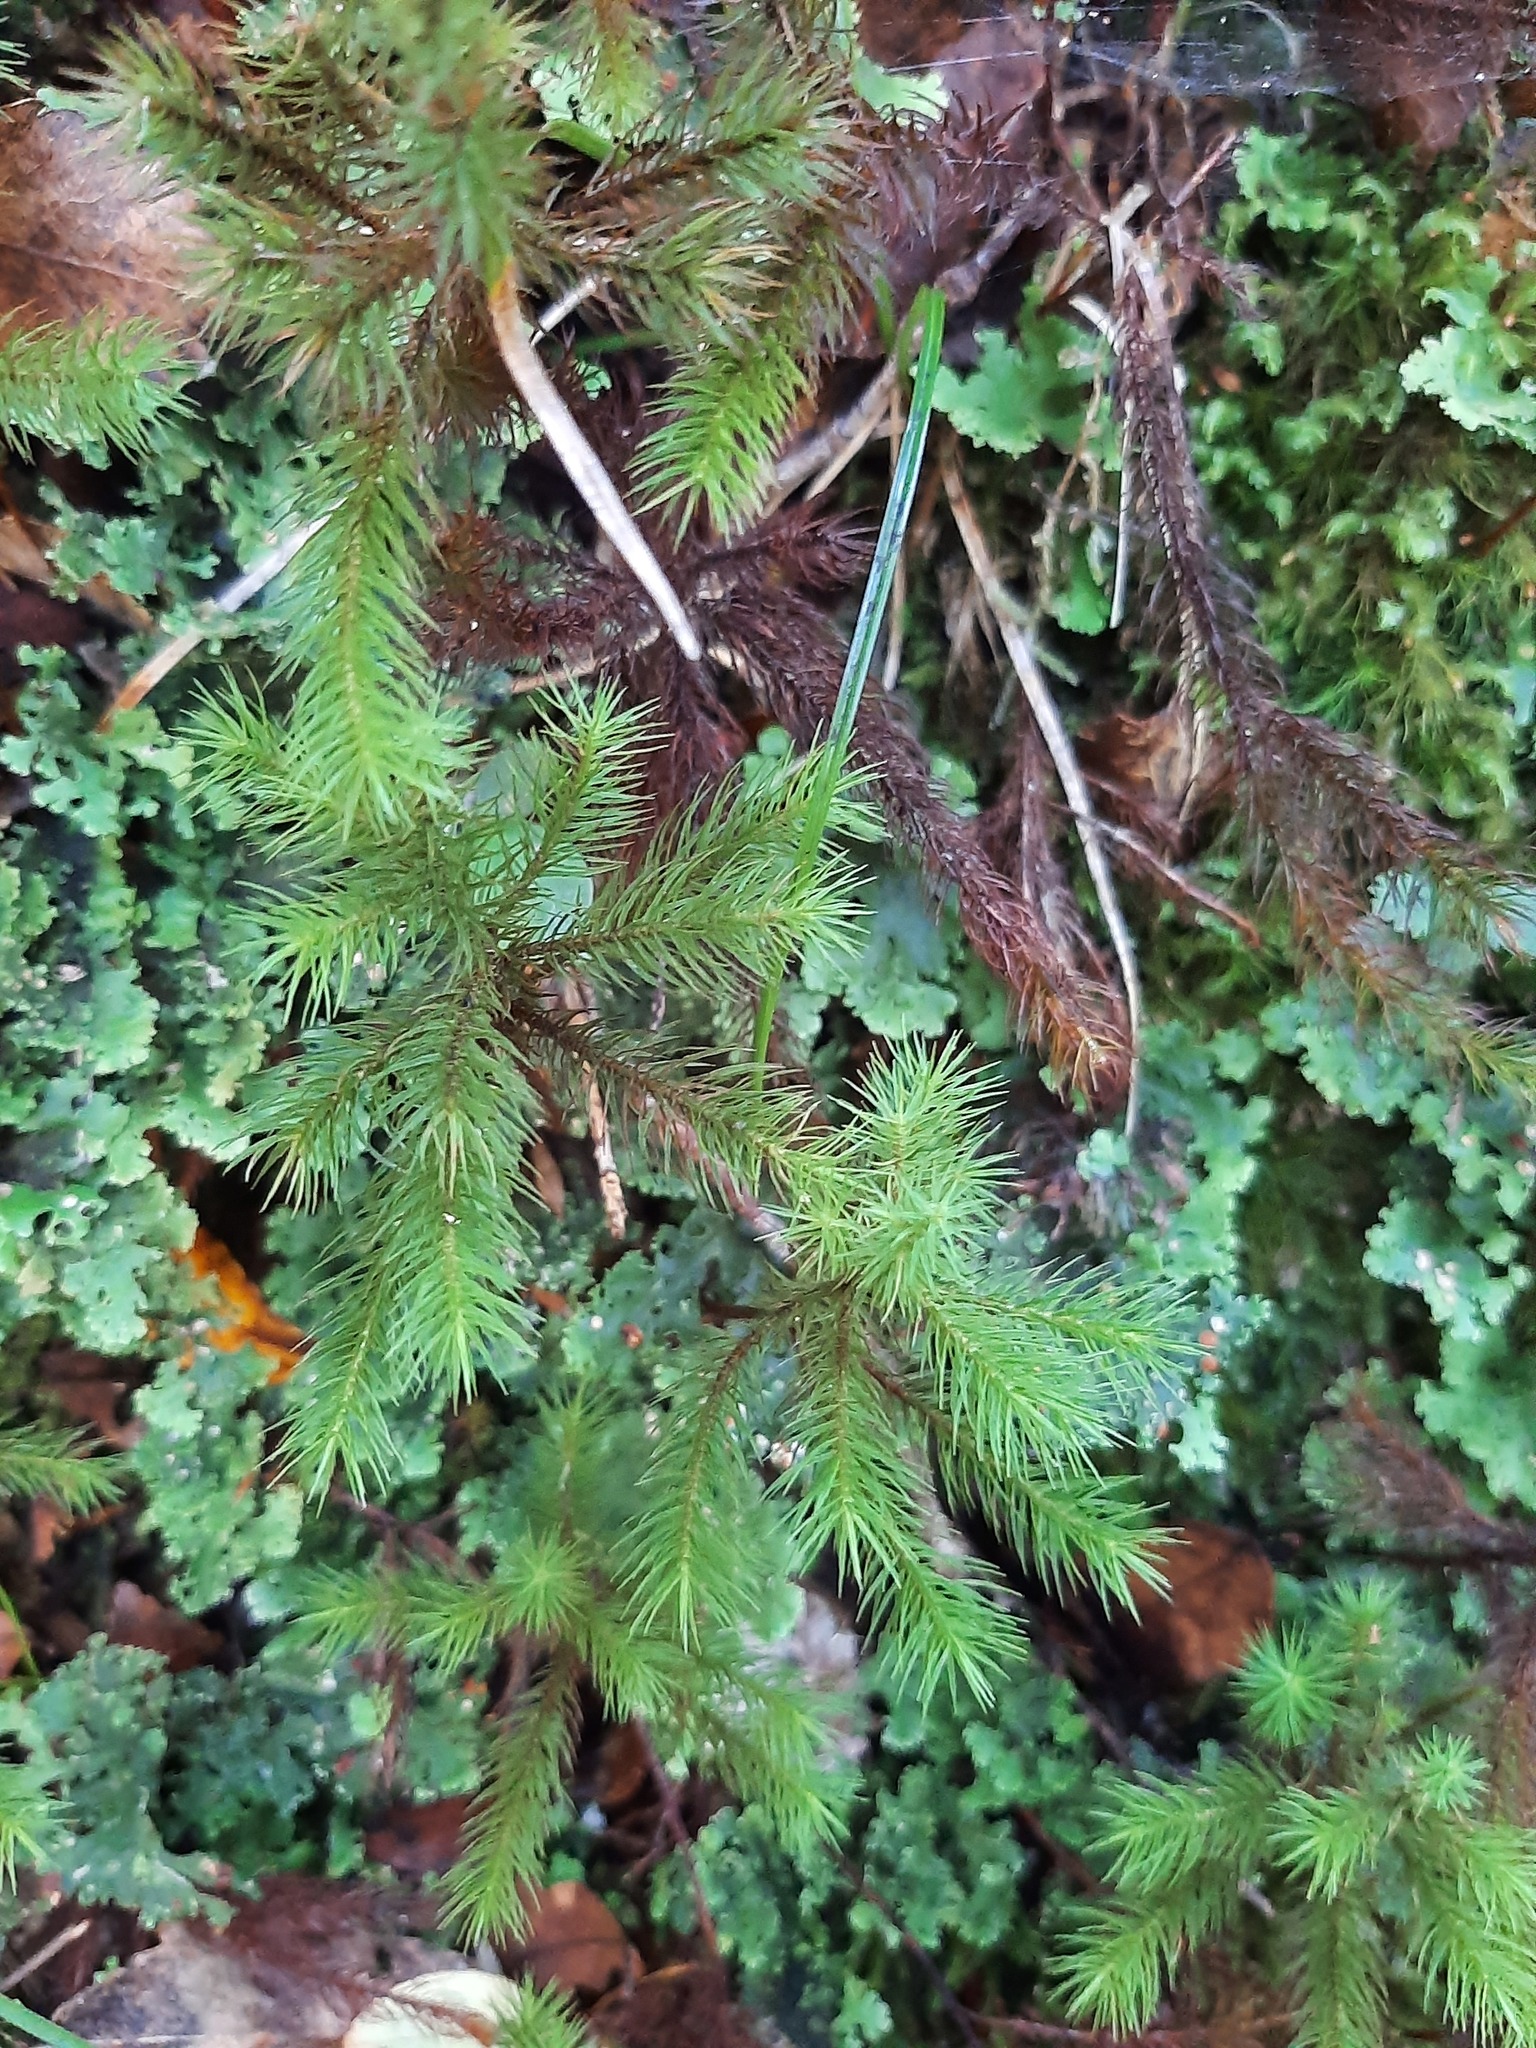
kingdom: Plantae
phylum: Bryophyta
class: Polytrichopsida
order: Polytrichales
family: Polytrichaceae
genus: Dendroligotrichum
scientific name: Dendroligotrichum tongariroense
